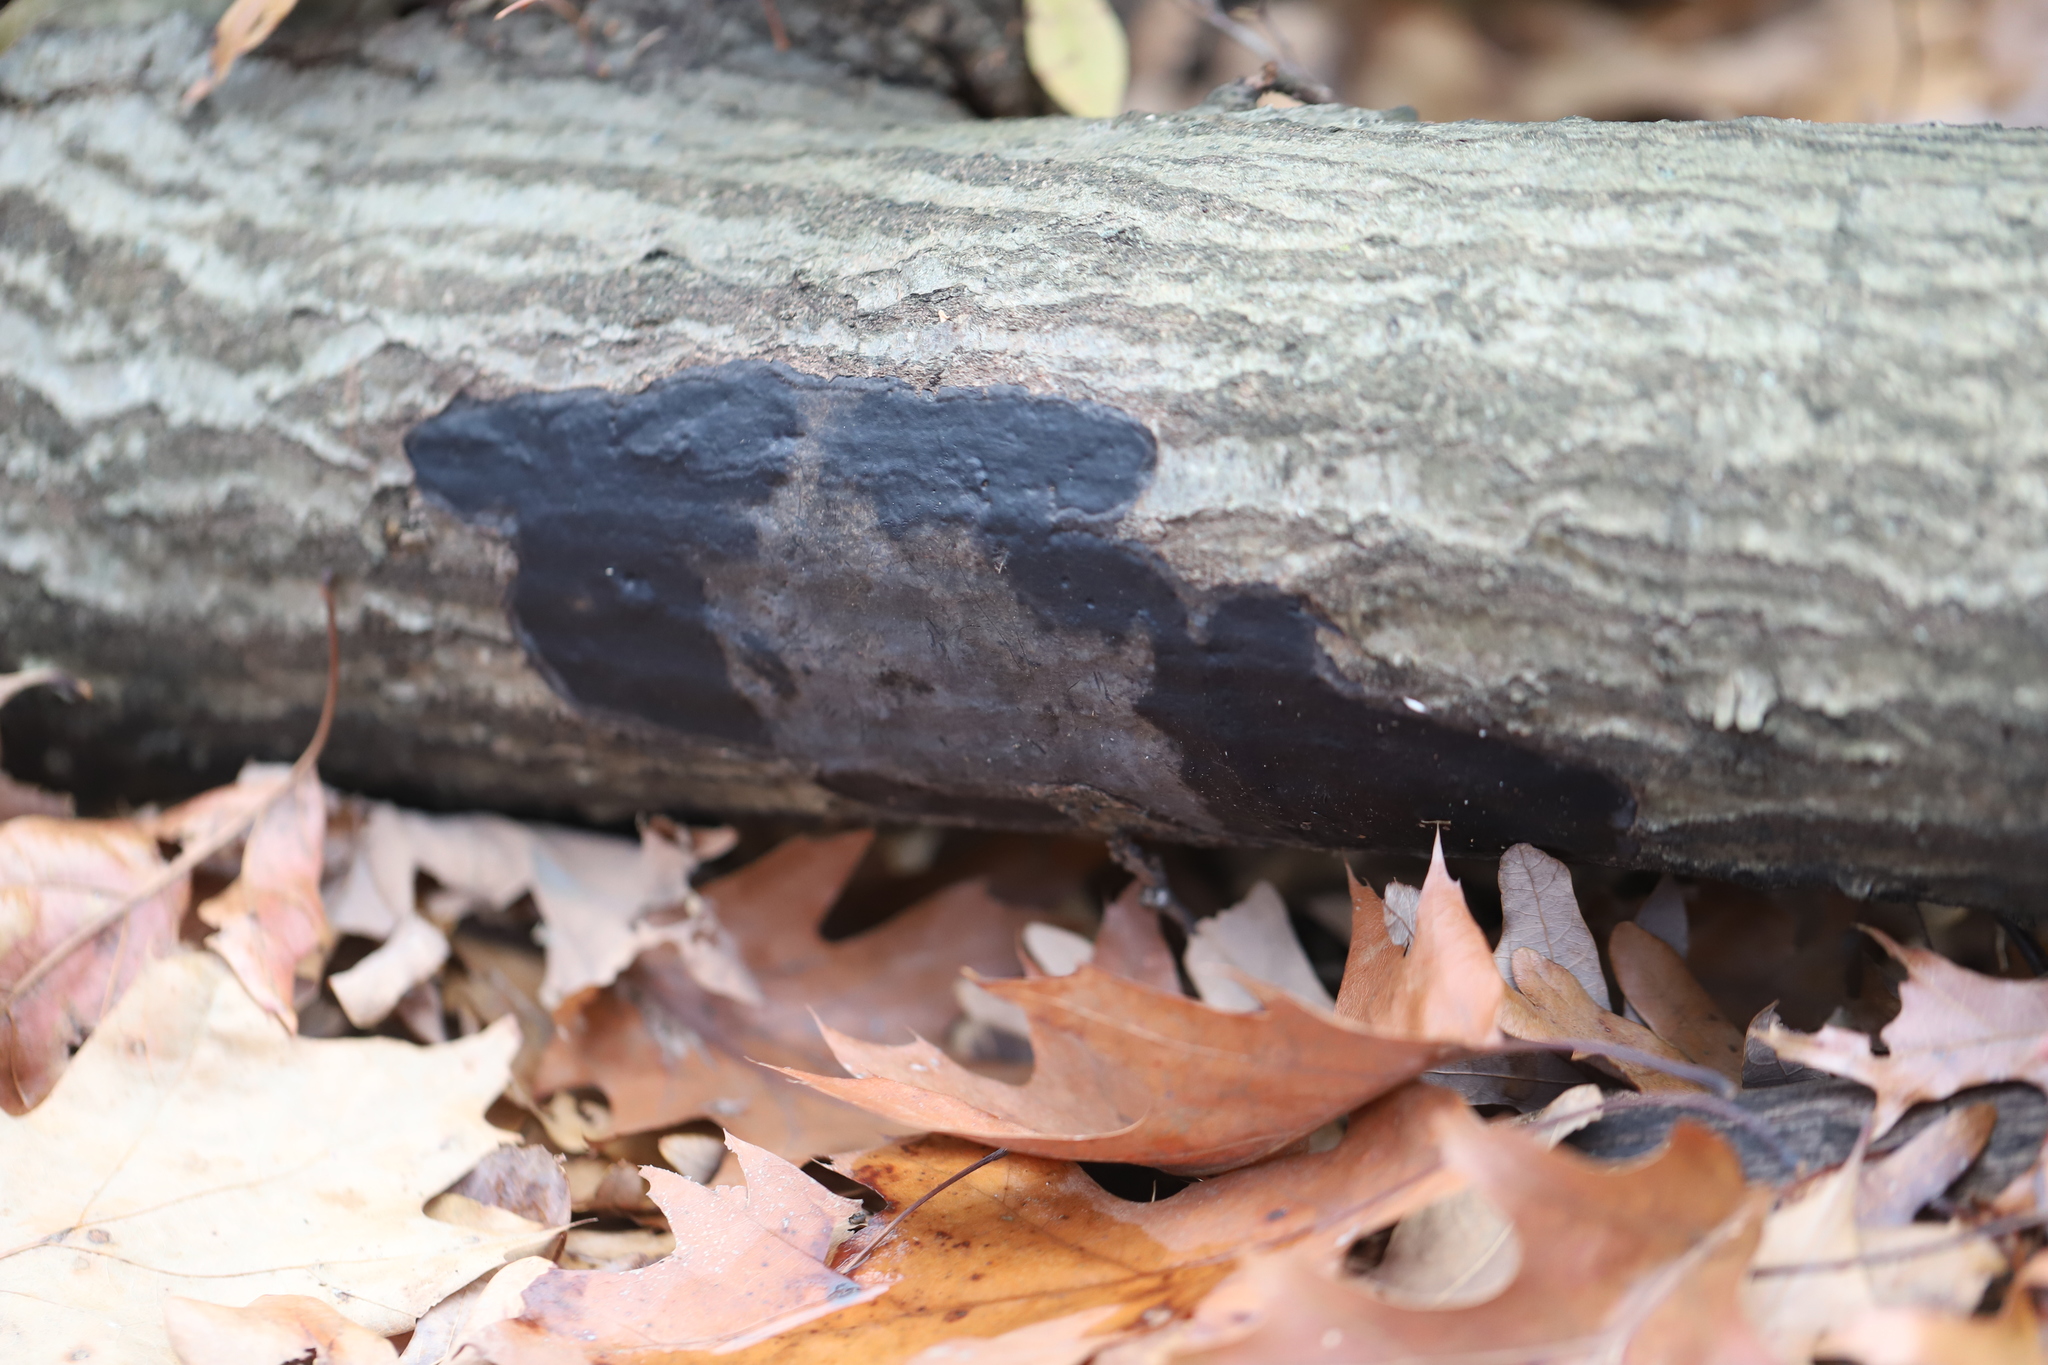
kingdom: Fungi
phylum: Ascomycota
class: Sordariomycetes
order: Xylariales
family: Graphostromataceae
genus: Biscogniauxia
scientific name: Biscogniauxia atropunctata
